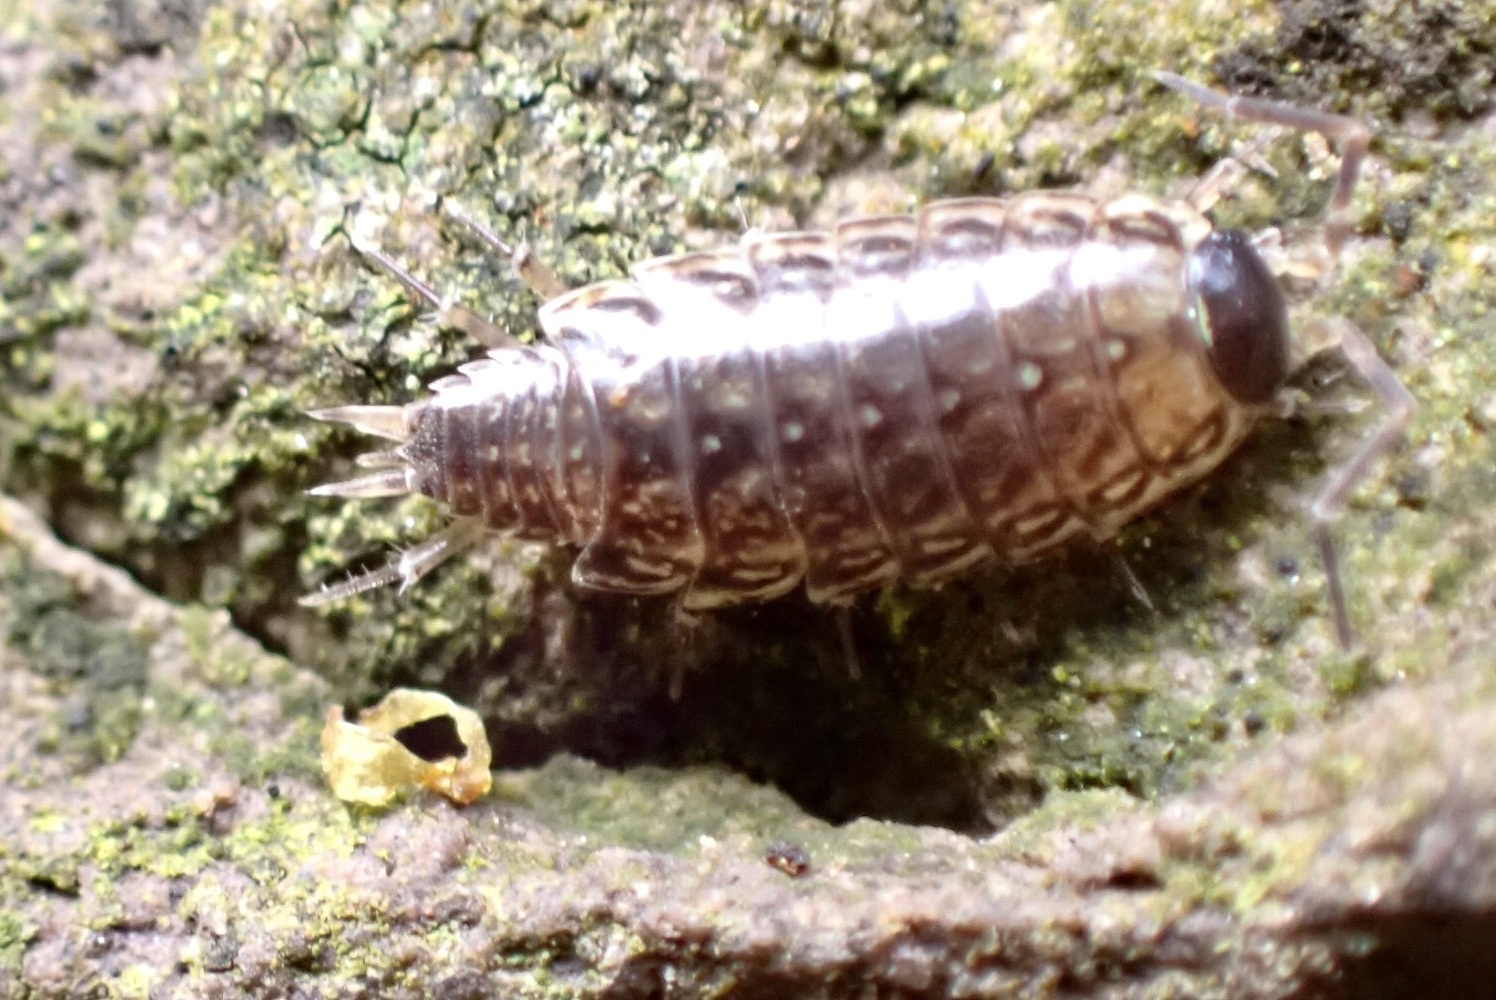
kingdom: Animalia
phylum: Arthropoda
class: Malacostraca
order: Isopoda
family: Philosciidae
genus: Philoscia
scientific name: Philoscia muscorum
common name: Common striped woodlouse
